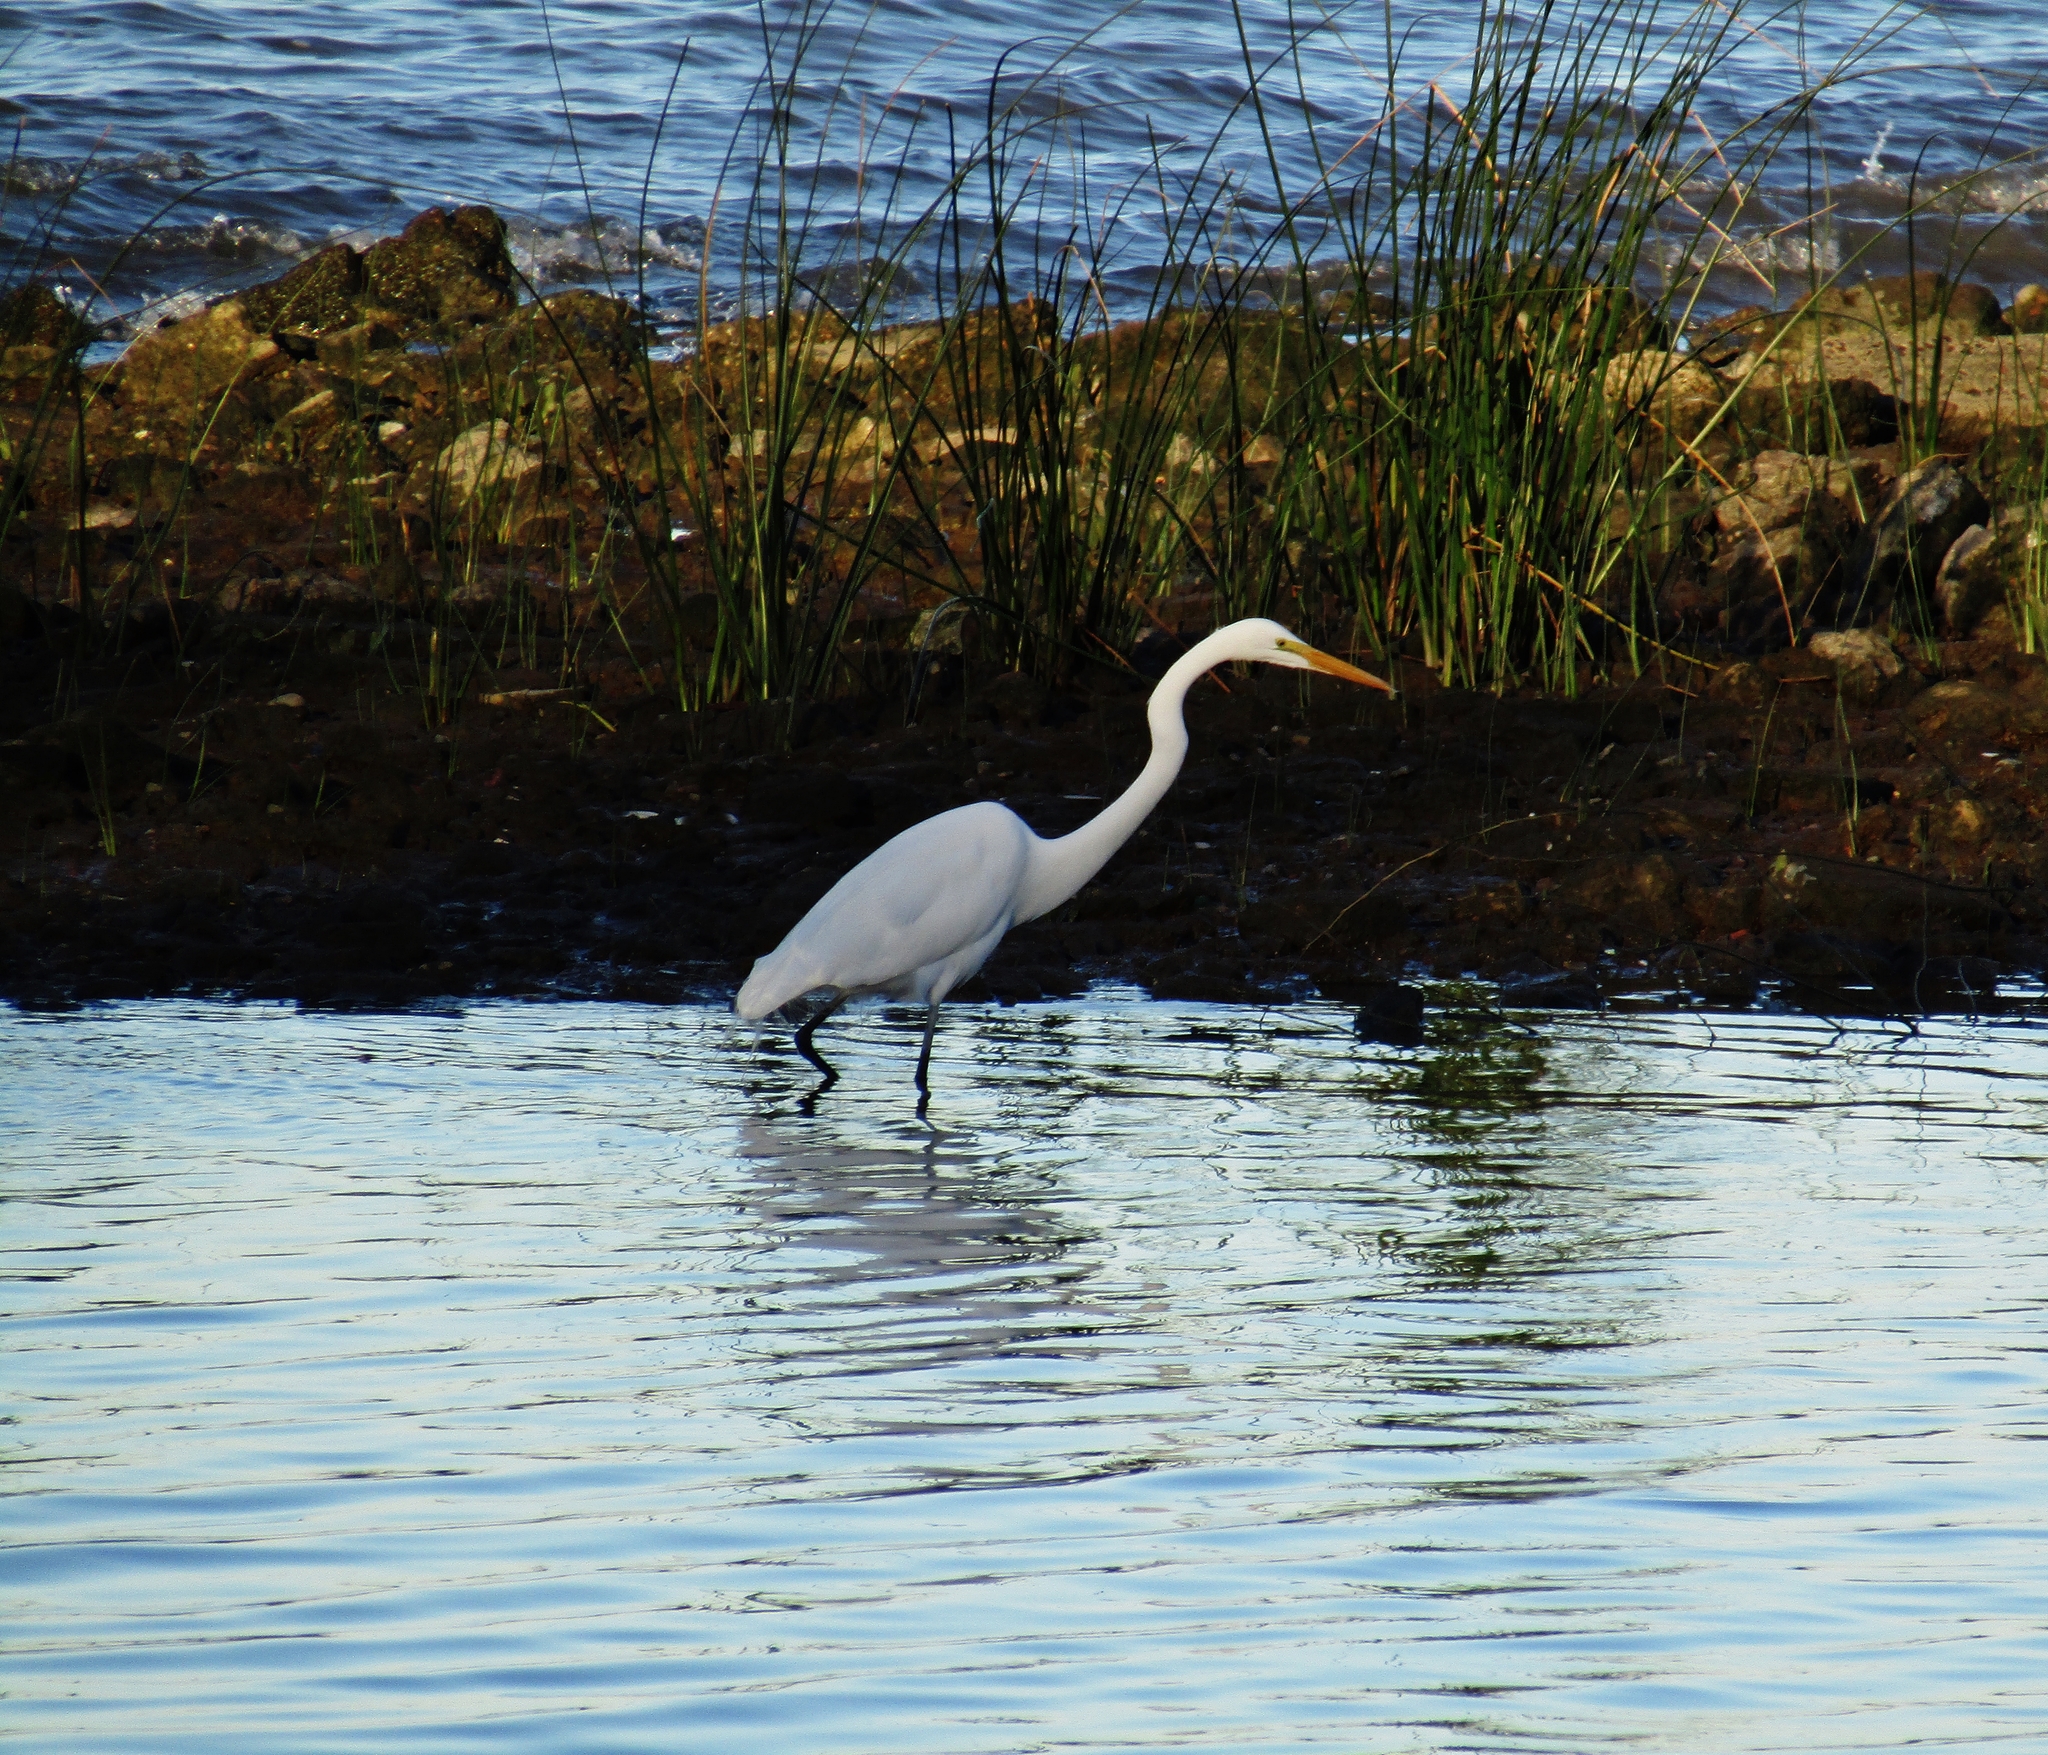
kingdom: Animalia
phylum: Chordata
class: Aves
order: Pelecaniformes
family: Ardeidae
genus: Ardea
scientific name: Ardea alba
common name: Great egret
